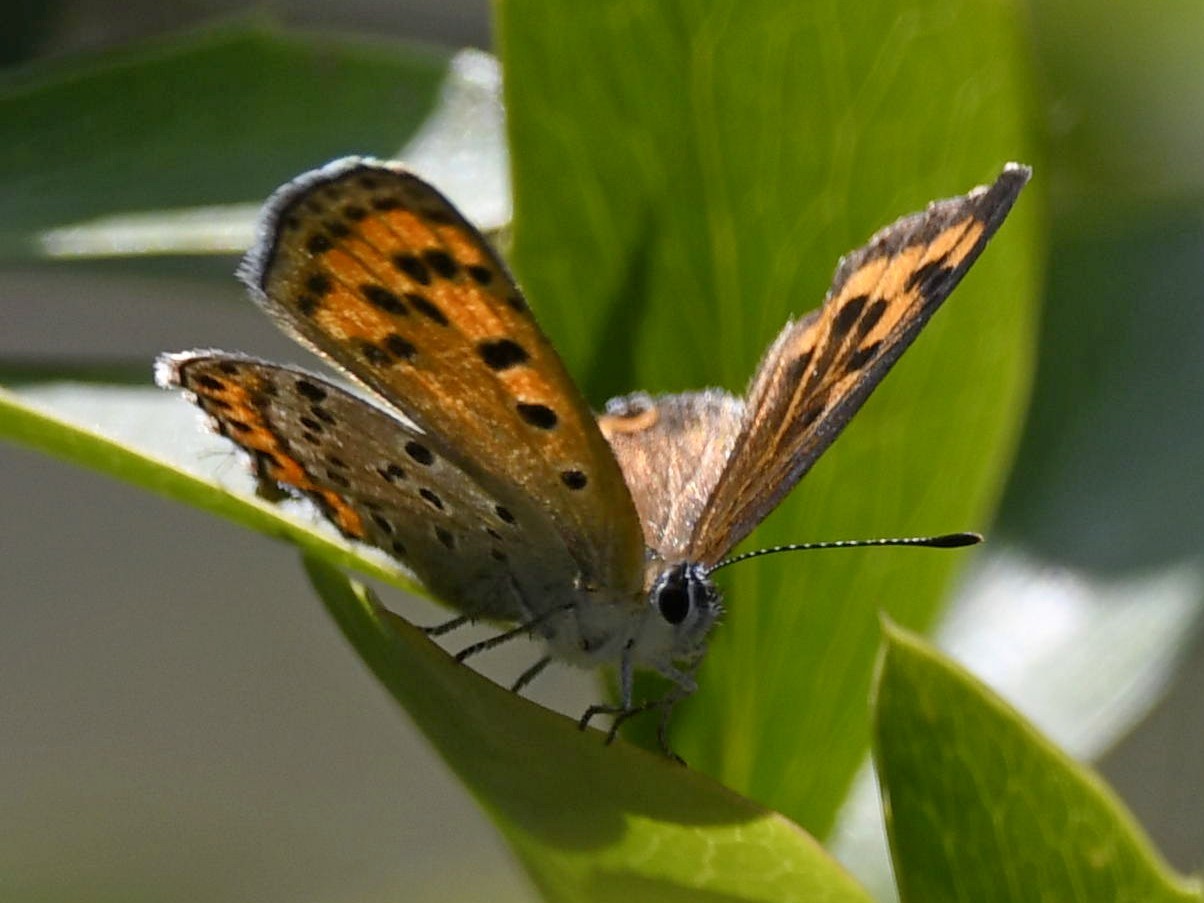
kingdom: Animalia
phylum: Arthropoda
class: Insecta
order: Lepidoptera
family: Lycaenidae
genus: Lycaena
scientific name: Lycaena panava
